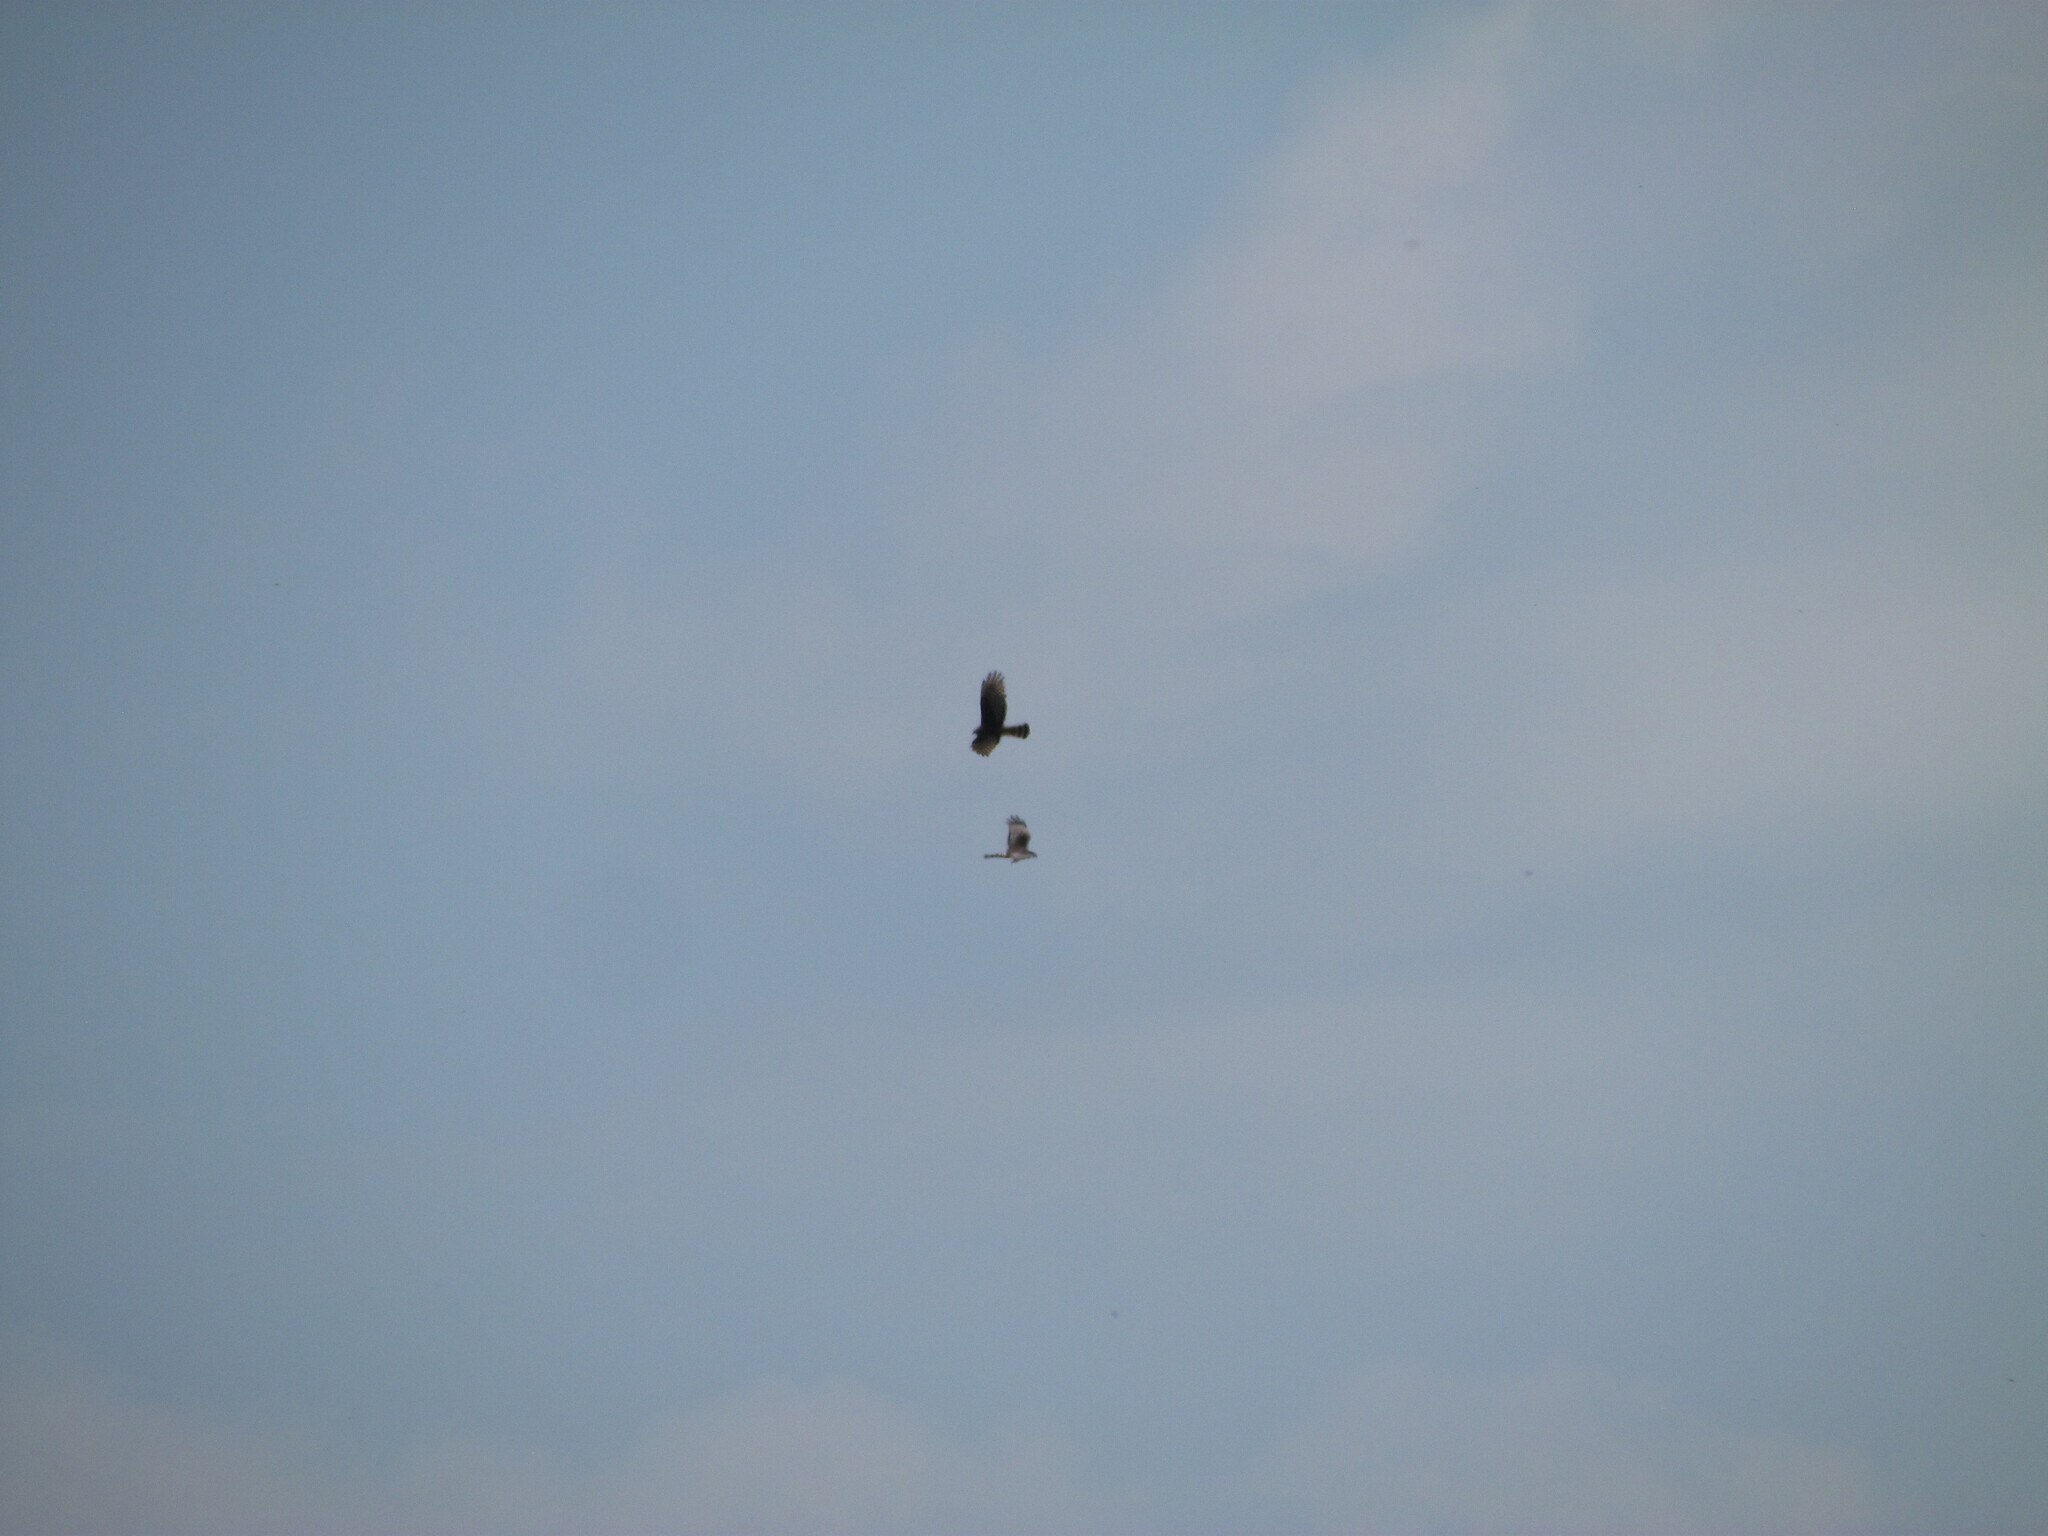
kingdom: Animalia
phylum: Chordata
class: Aves
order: Accipitriformes
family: Accipitridae
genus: Circus
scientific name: Circus buffoni
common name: Long-winged harrier
